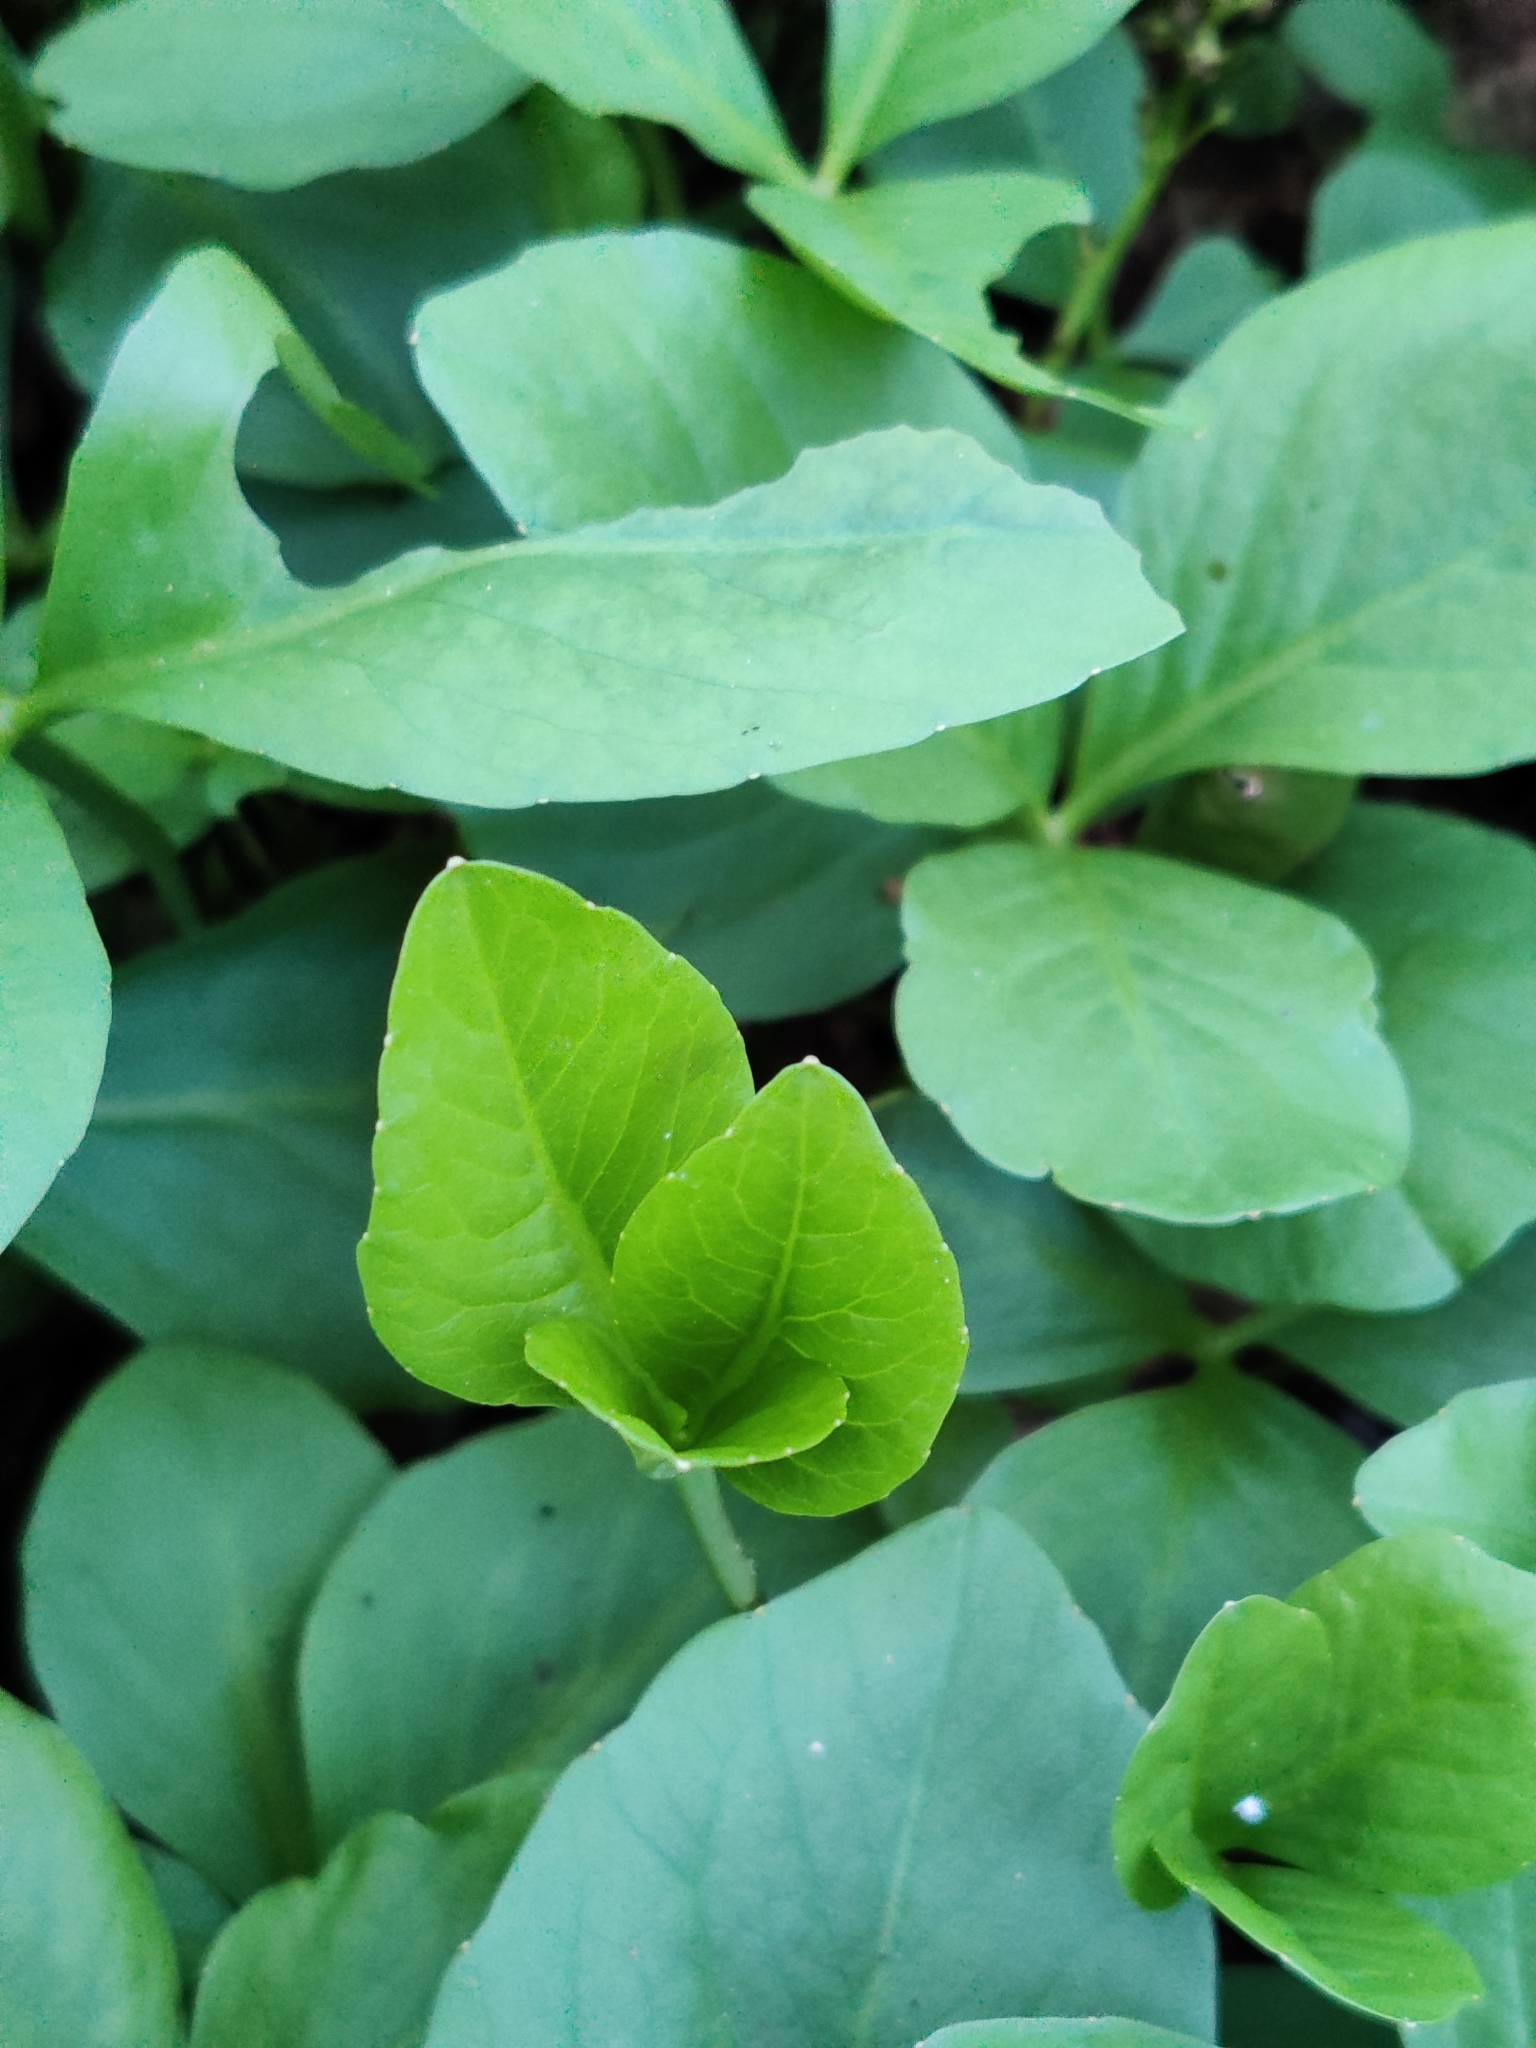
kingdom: Plantae
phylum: Tracheophyta
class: Magnoliopsida
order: Asterales
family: Menyanthaceae
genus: Menyanthes
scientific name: Menyanthes trifoliata
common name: Bogbean
